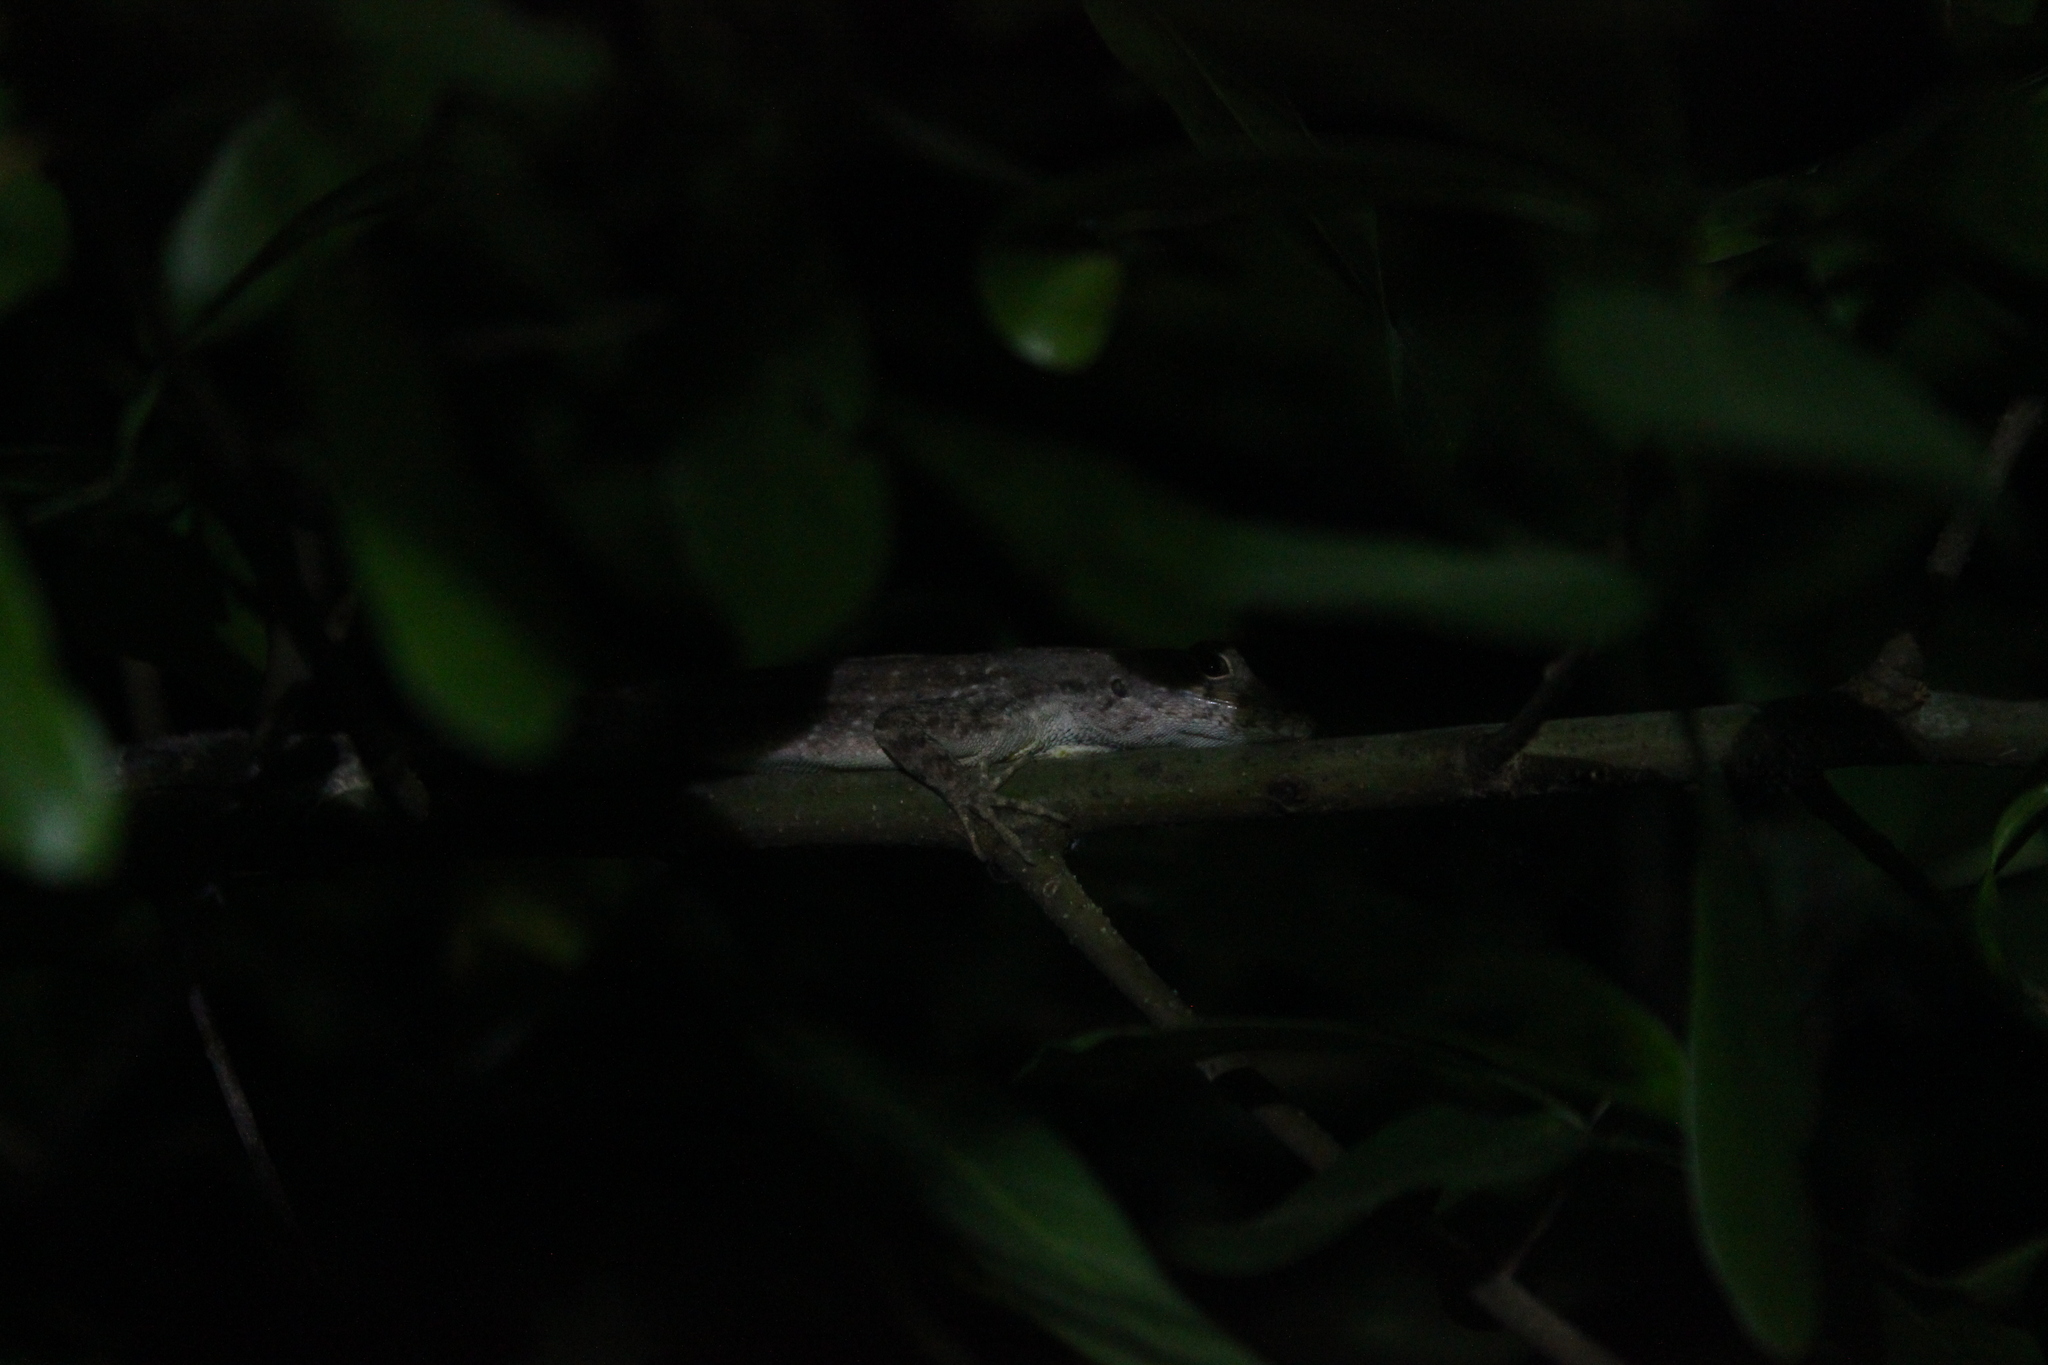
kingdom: Animalia
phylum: Chordata
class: Squamata
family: Dactyloidae
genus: Anolis
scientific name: Anolis sagrei
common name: Brown anole
